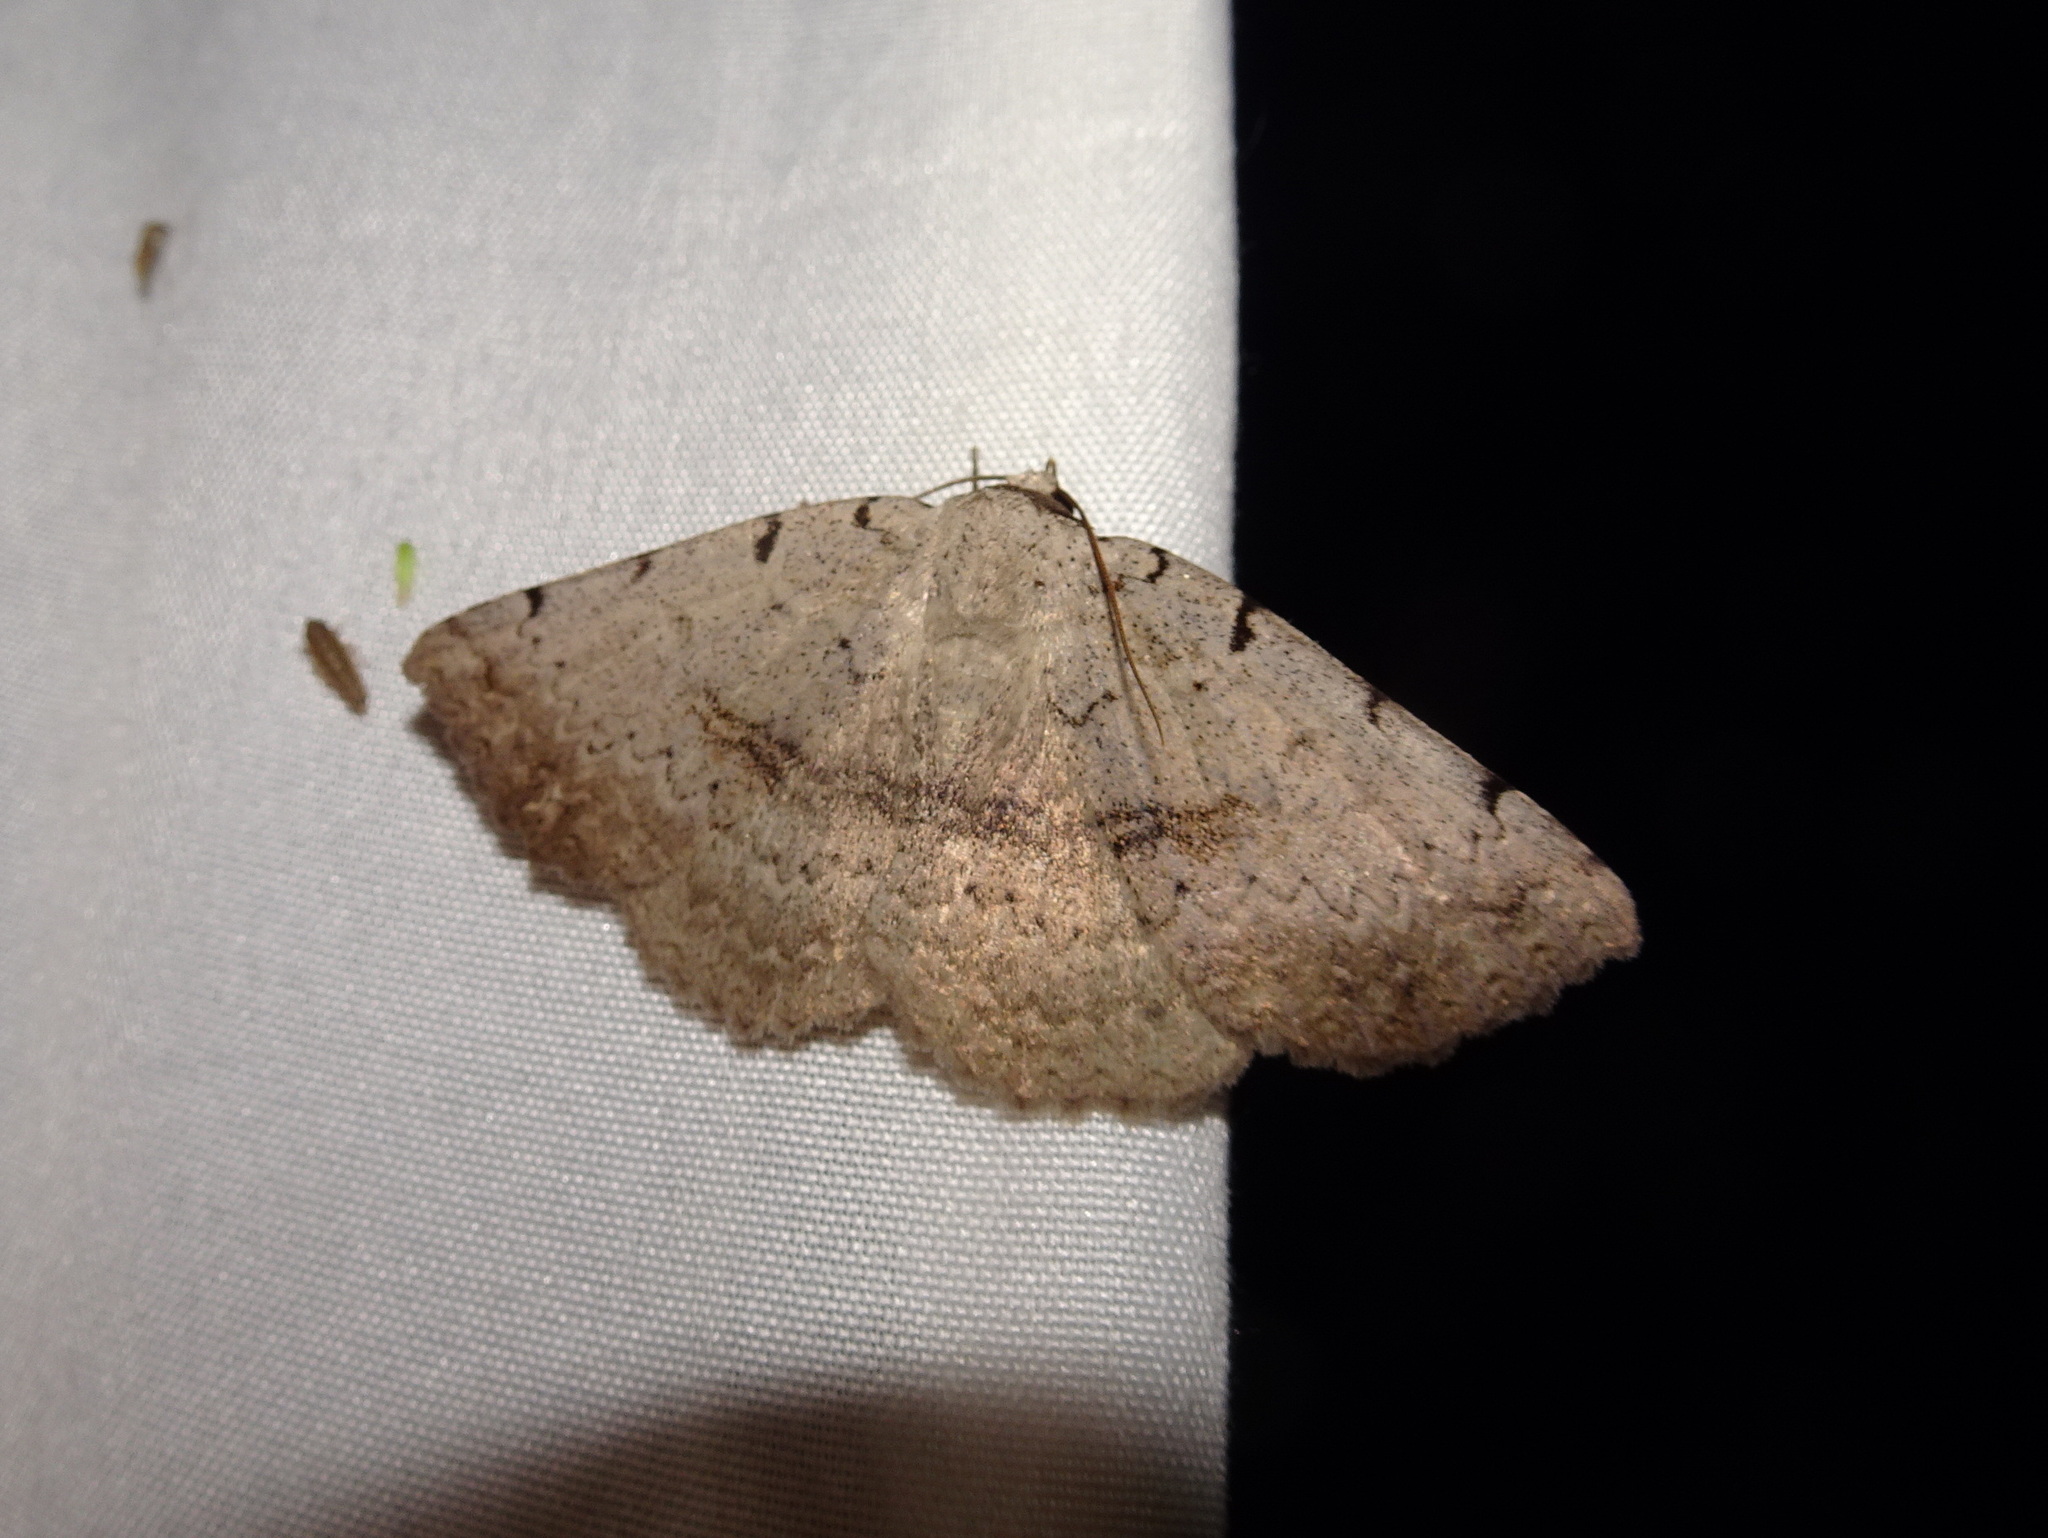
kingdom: Animalia
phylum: Arthropoda
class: Insecta
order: Lepidoptera
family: Erebidae
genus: Spiloloma
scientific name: Spiloloma lunilinea
